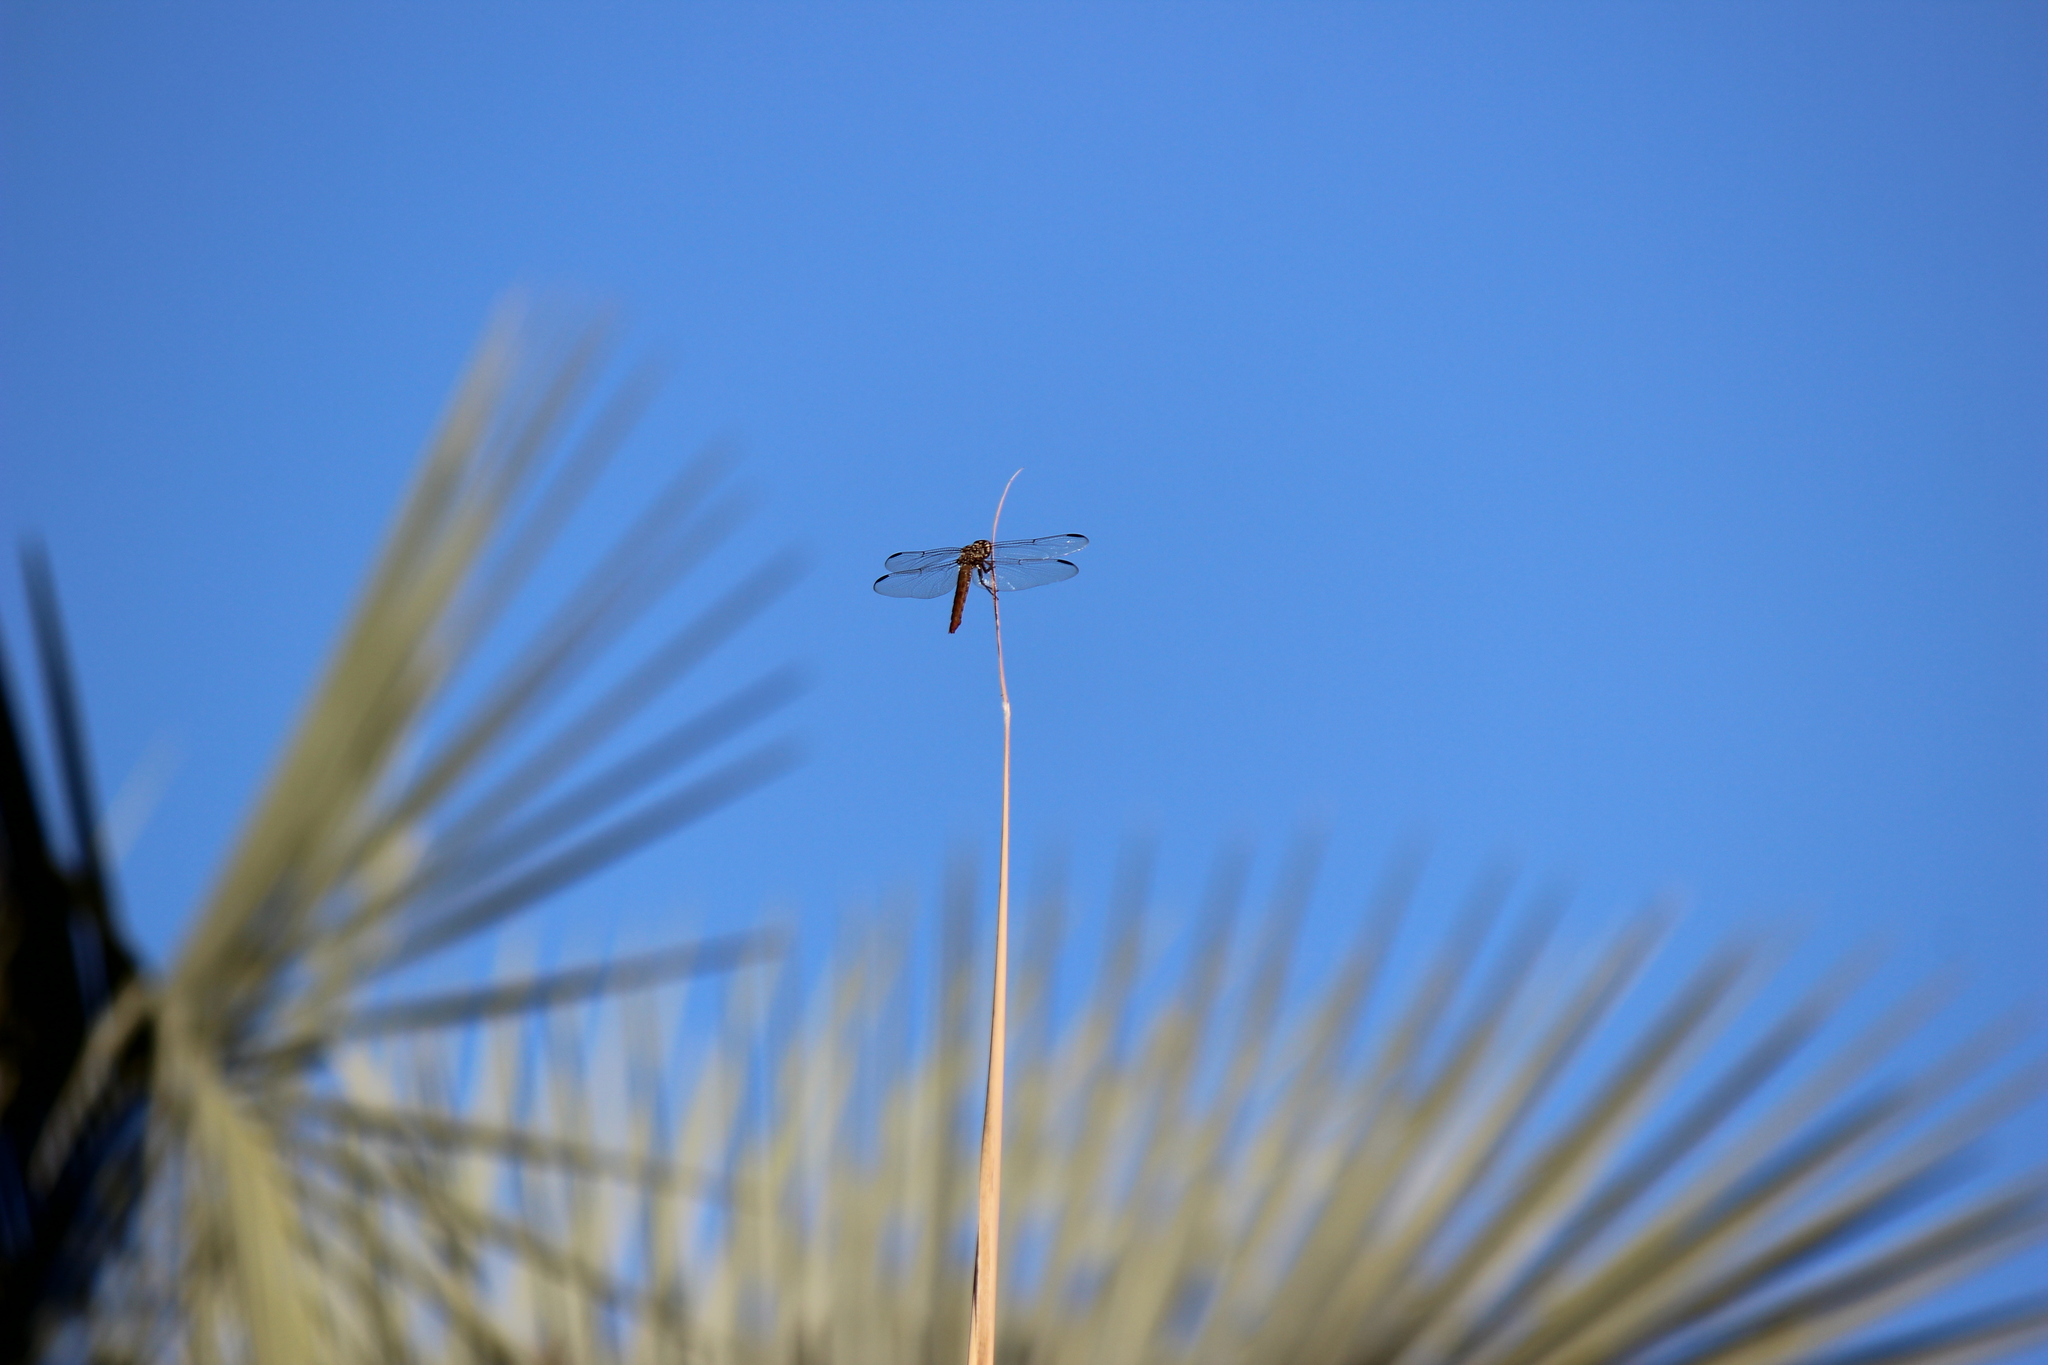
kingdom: Animalia
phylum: Arthropoda
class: Insecta
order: Odonata
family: Libellulidae
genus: Orthemis
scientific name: Orthemis nodiplaga
